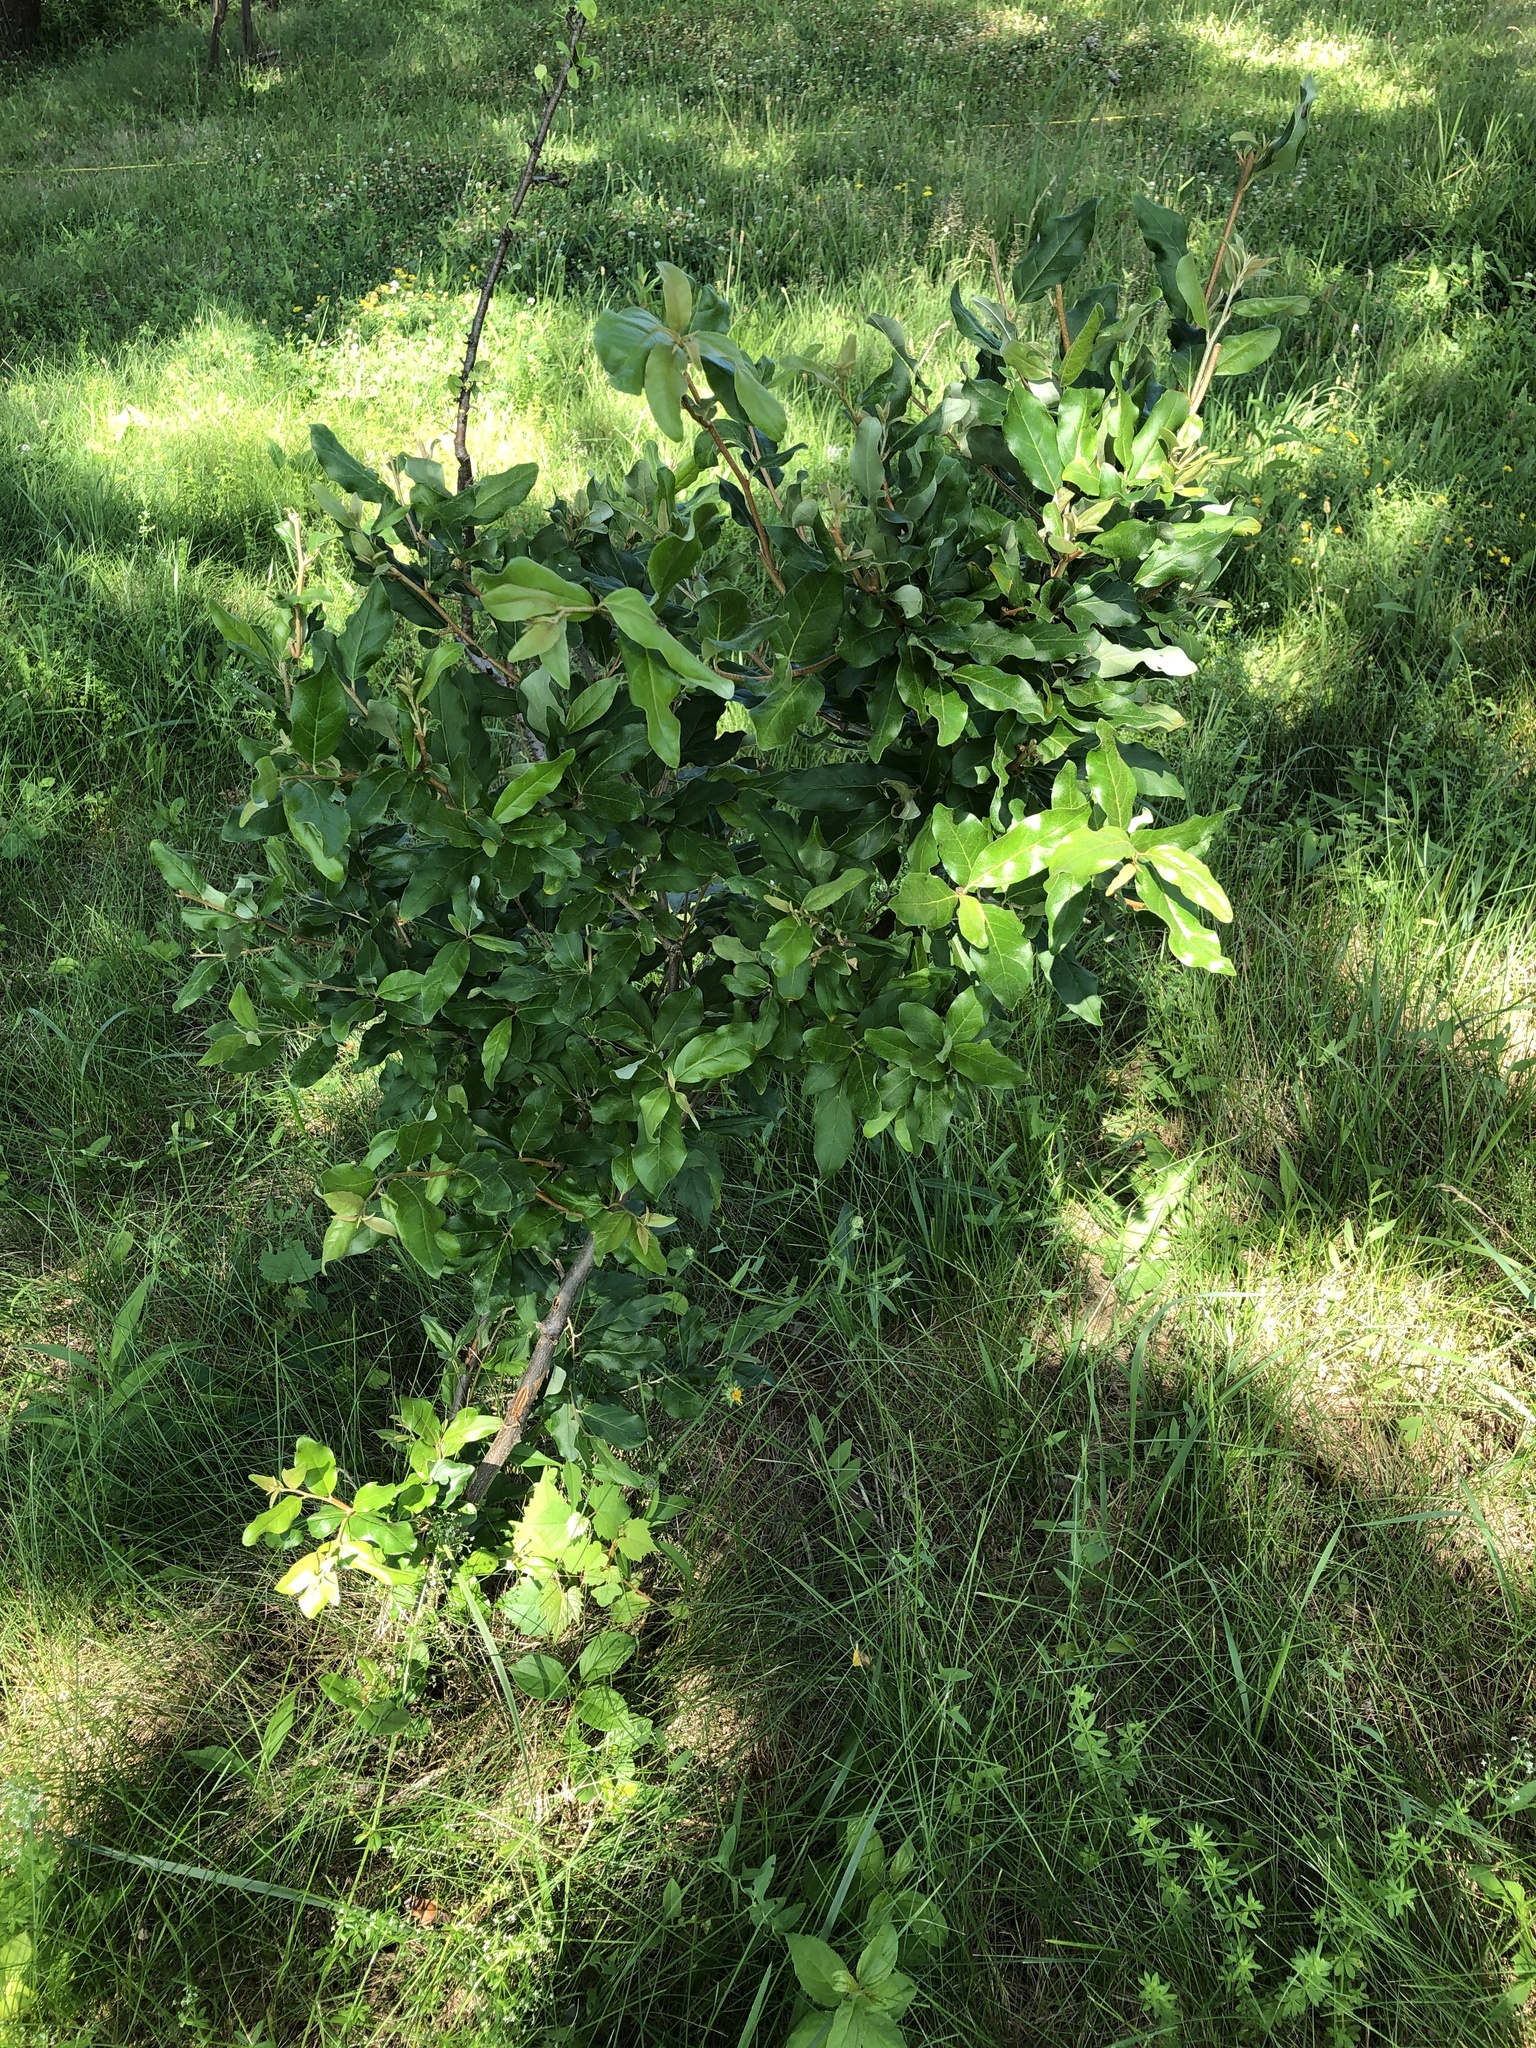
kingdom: Plantae
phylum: Tracheophyta
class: Magnoliopsida
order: Rosales
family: Elaeagnaceae
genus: Elaeagnus
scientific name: Elaeagnus umbellata
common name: Autumn olive
